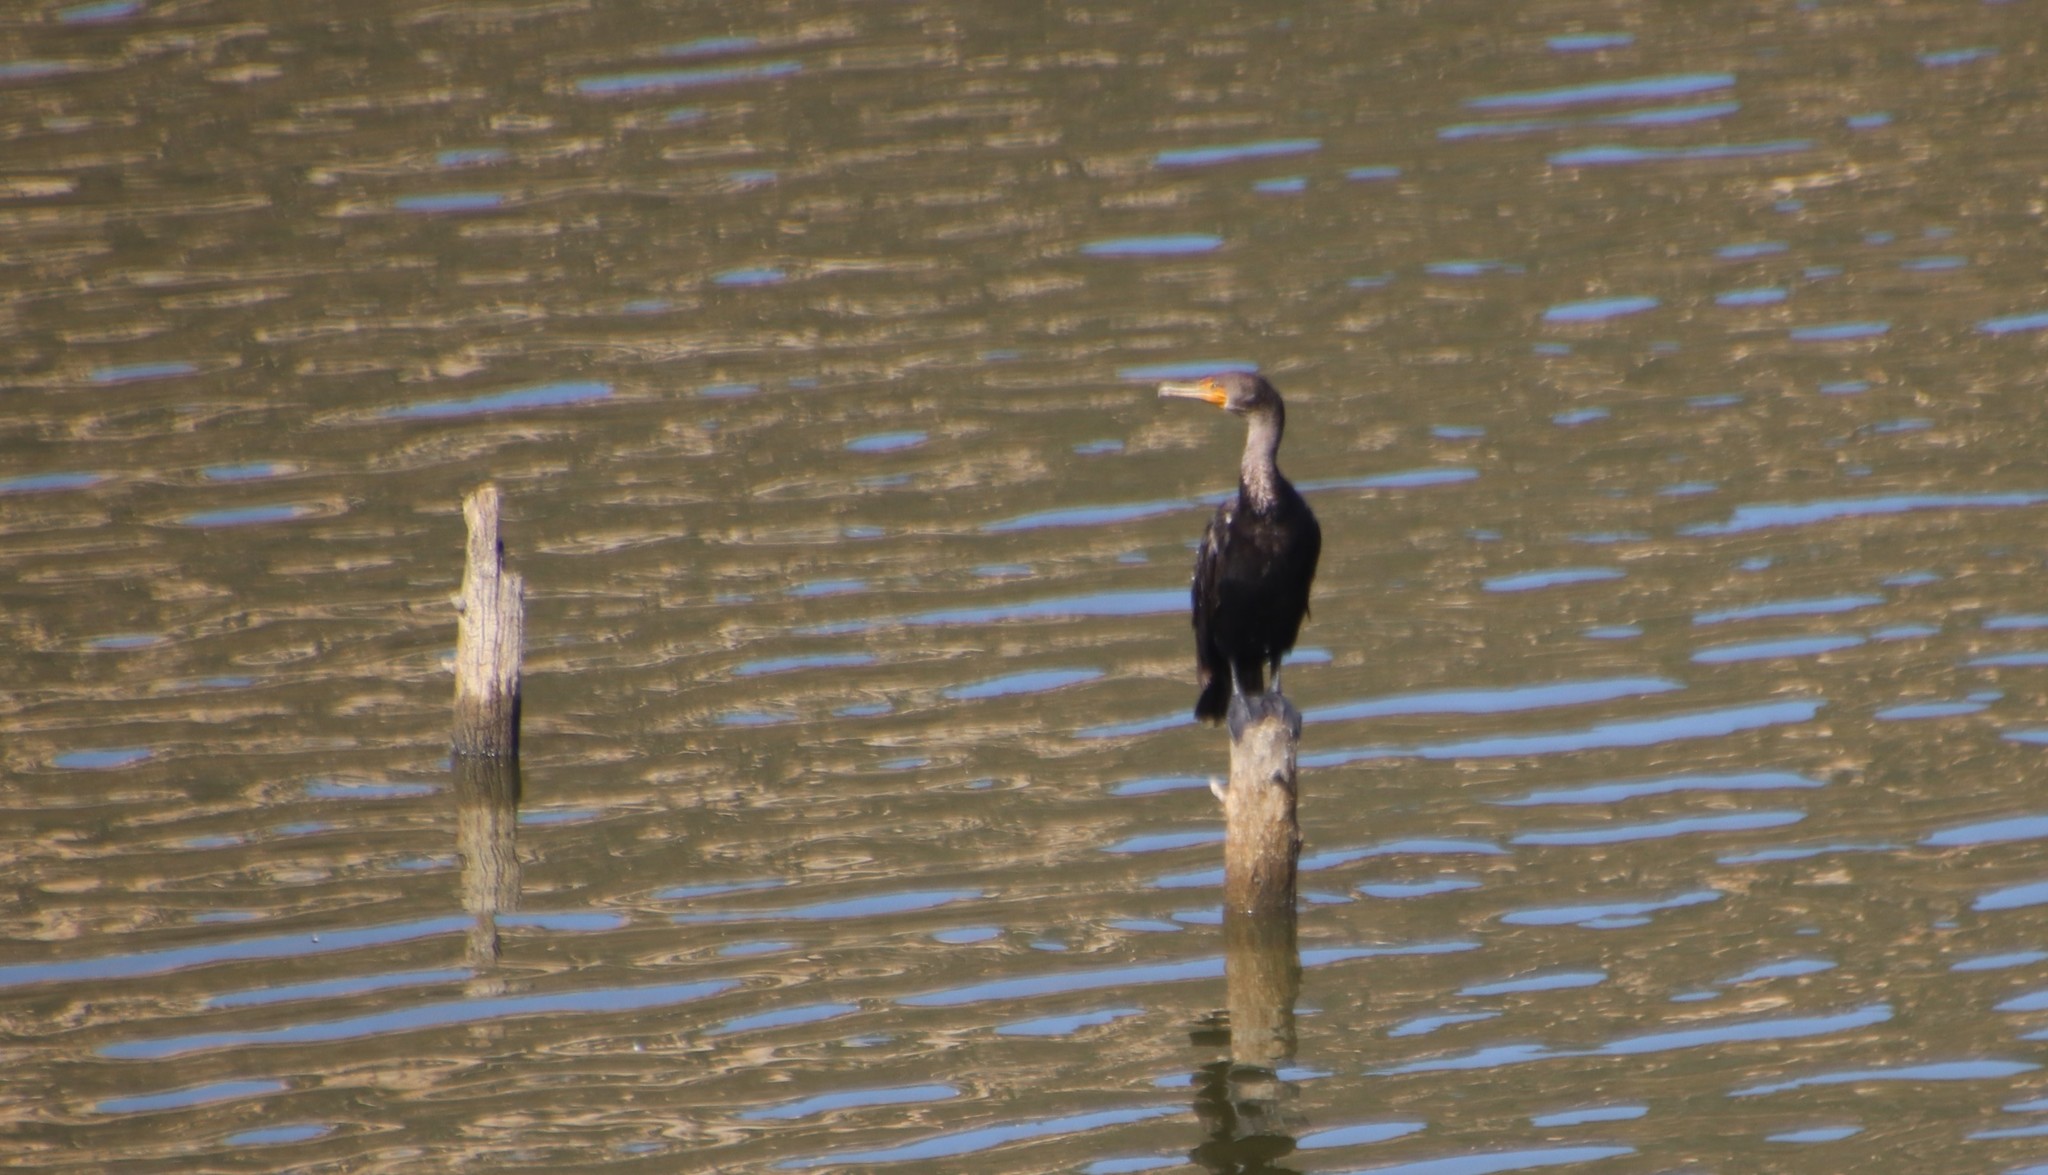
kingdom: Animalia
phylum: Chordata
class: Aves
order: Suliformes
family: Phalacrocoracidae
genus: Phalacrocorax
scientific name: Phalacrocorax auritus
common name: Double-crested cormorant
